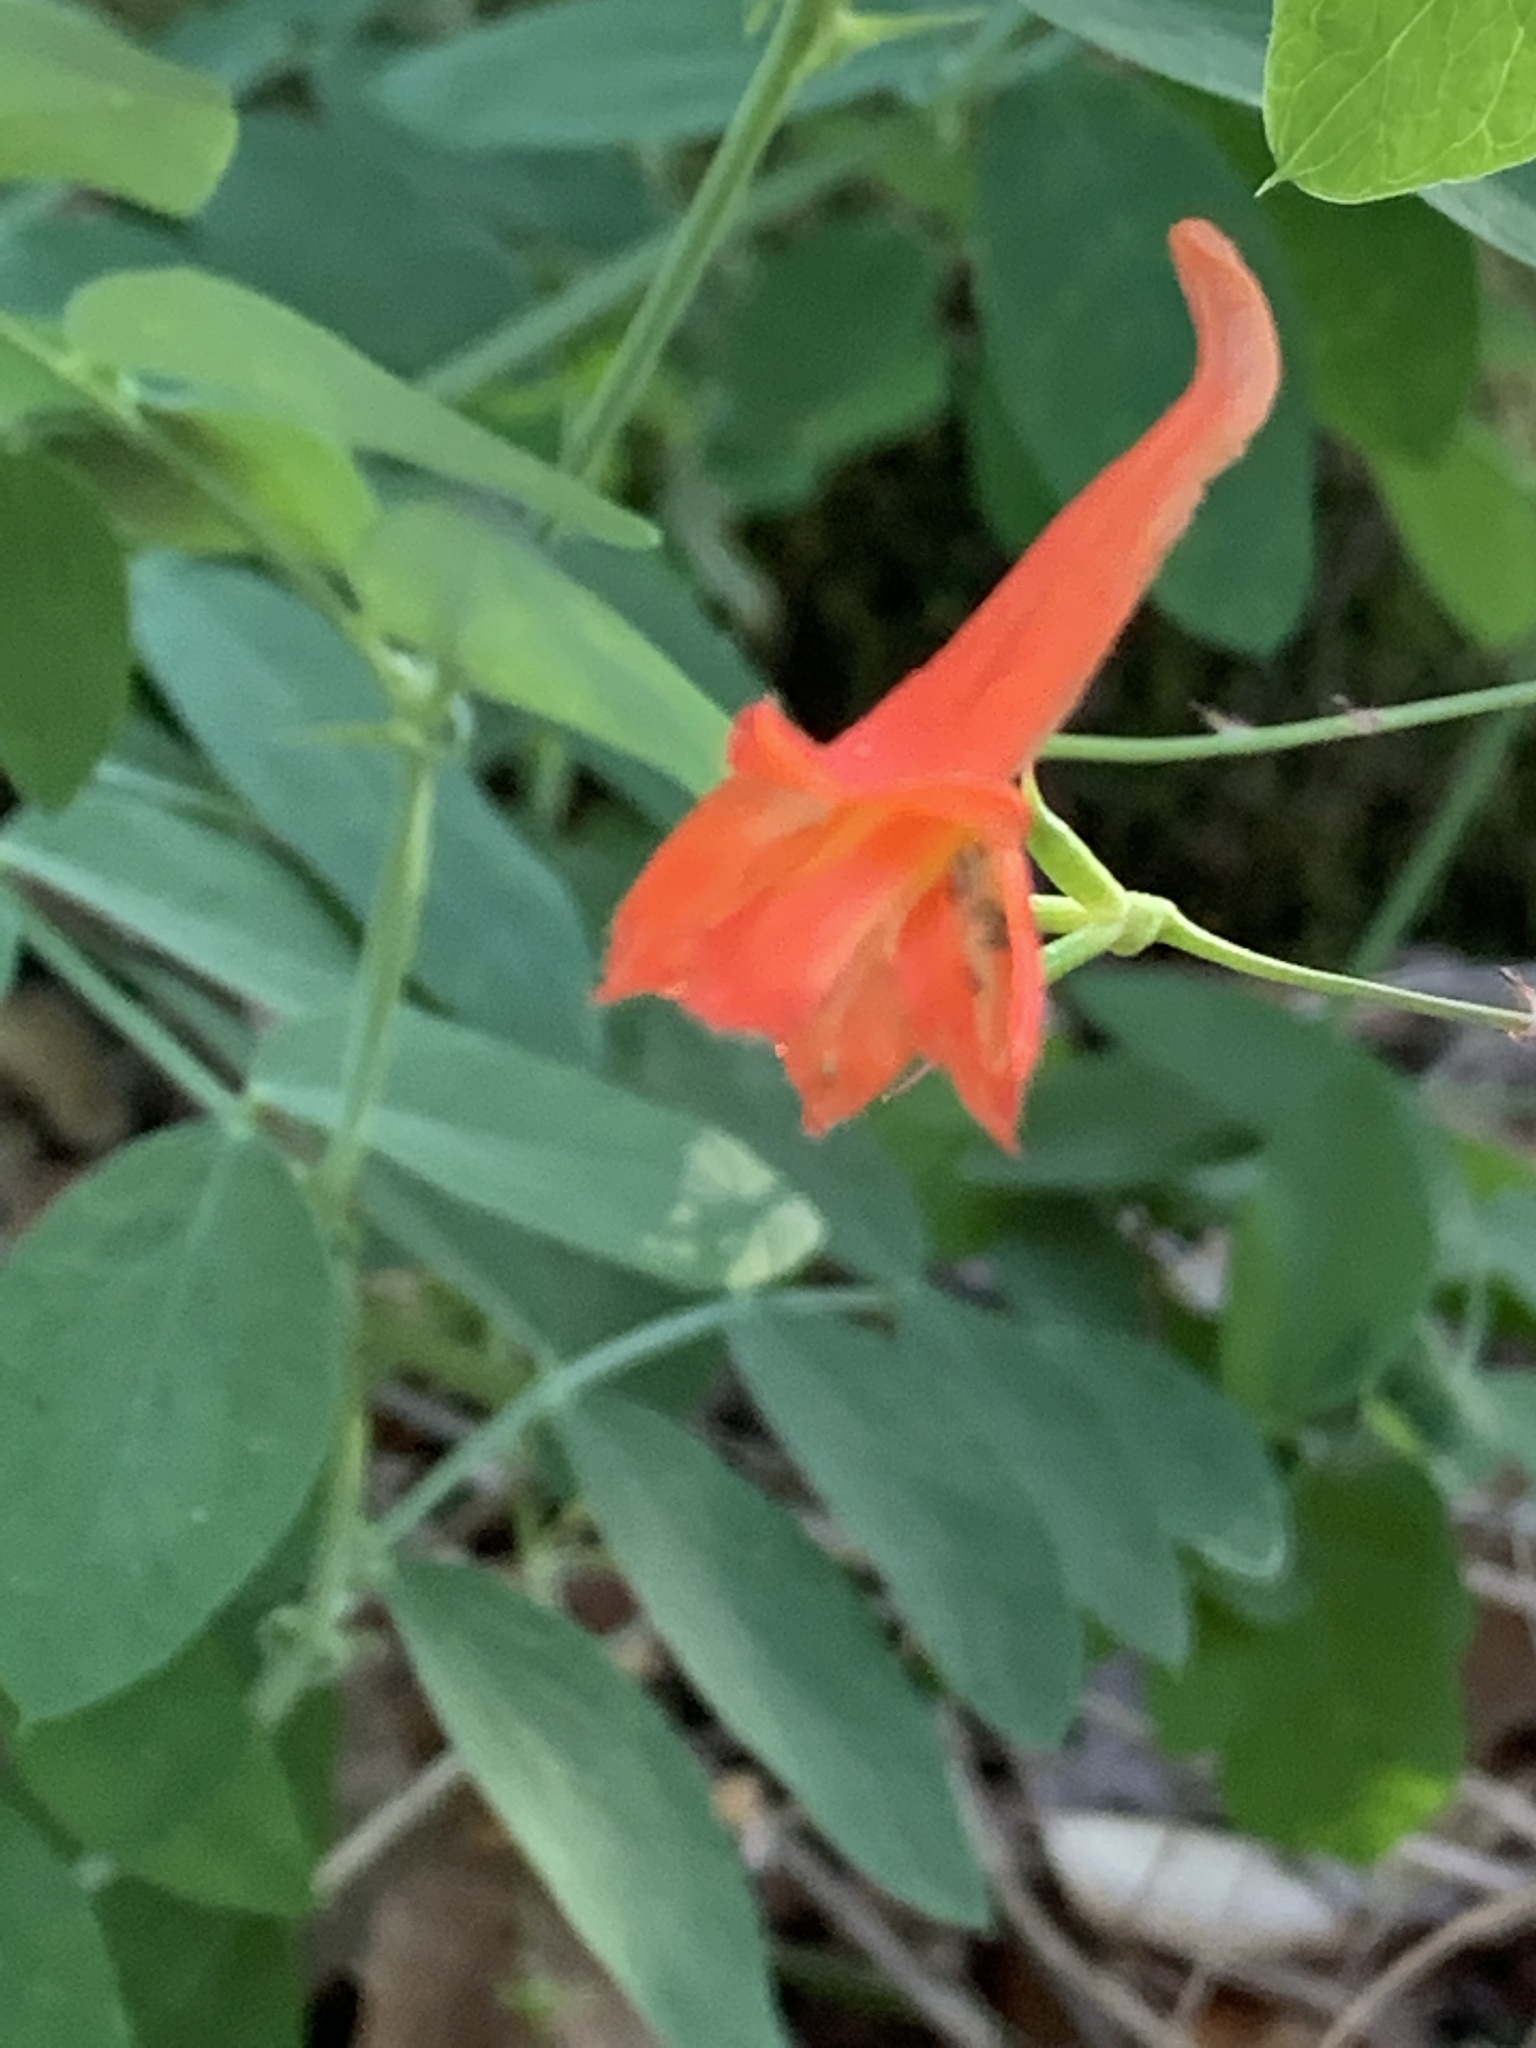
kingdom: Plantae
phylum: Tracheophyta
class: Magnoliopsida
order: Ranunculales
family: Ranunculaceae
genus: Delphinium
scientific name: Delphinium nudicaule
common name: Red larkspur
